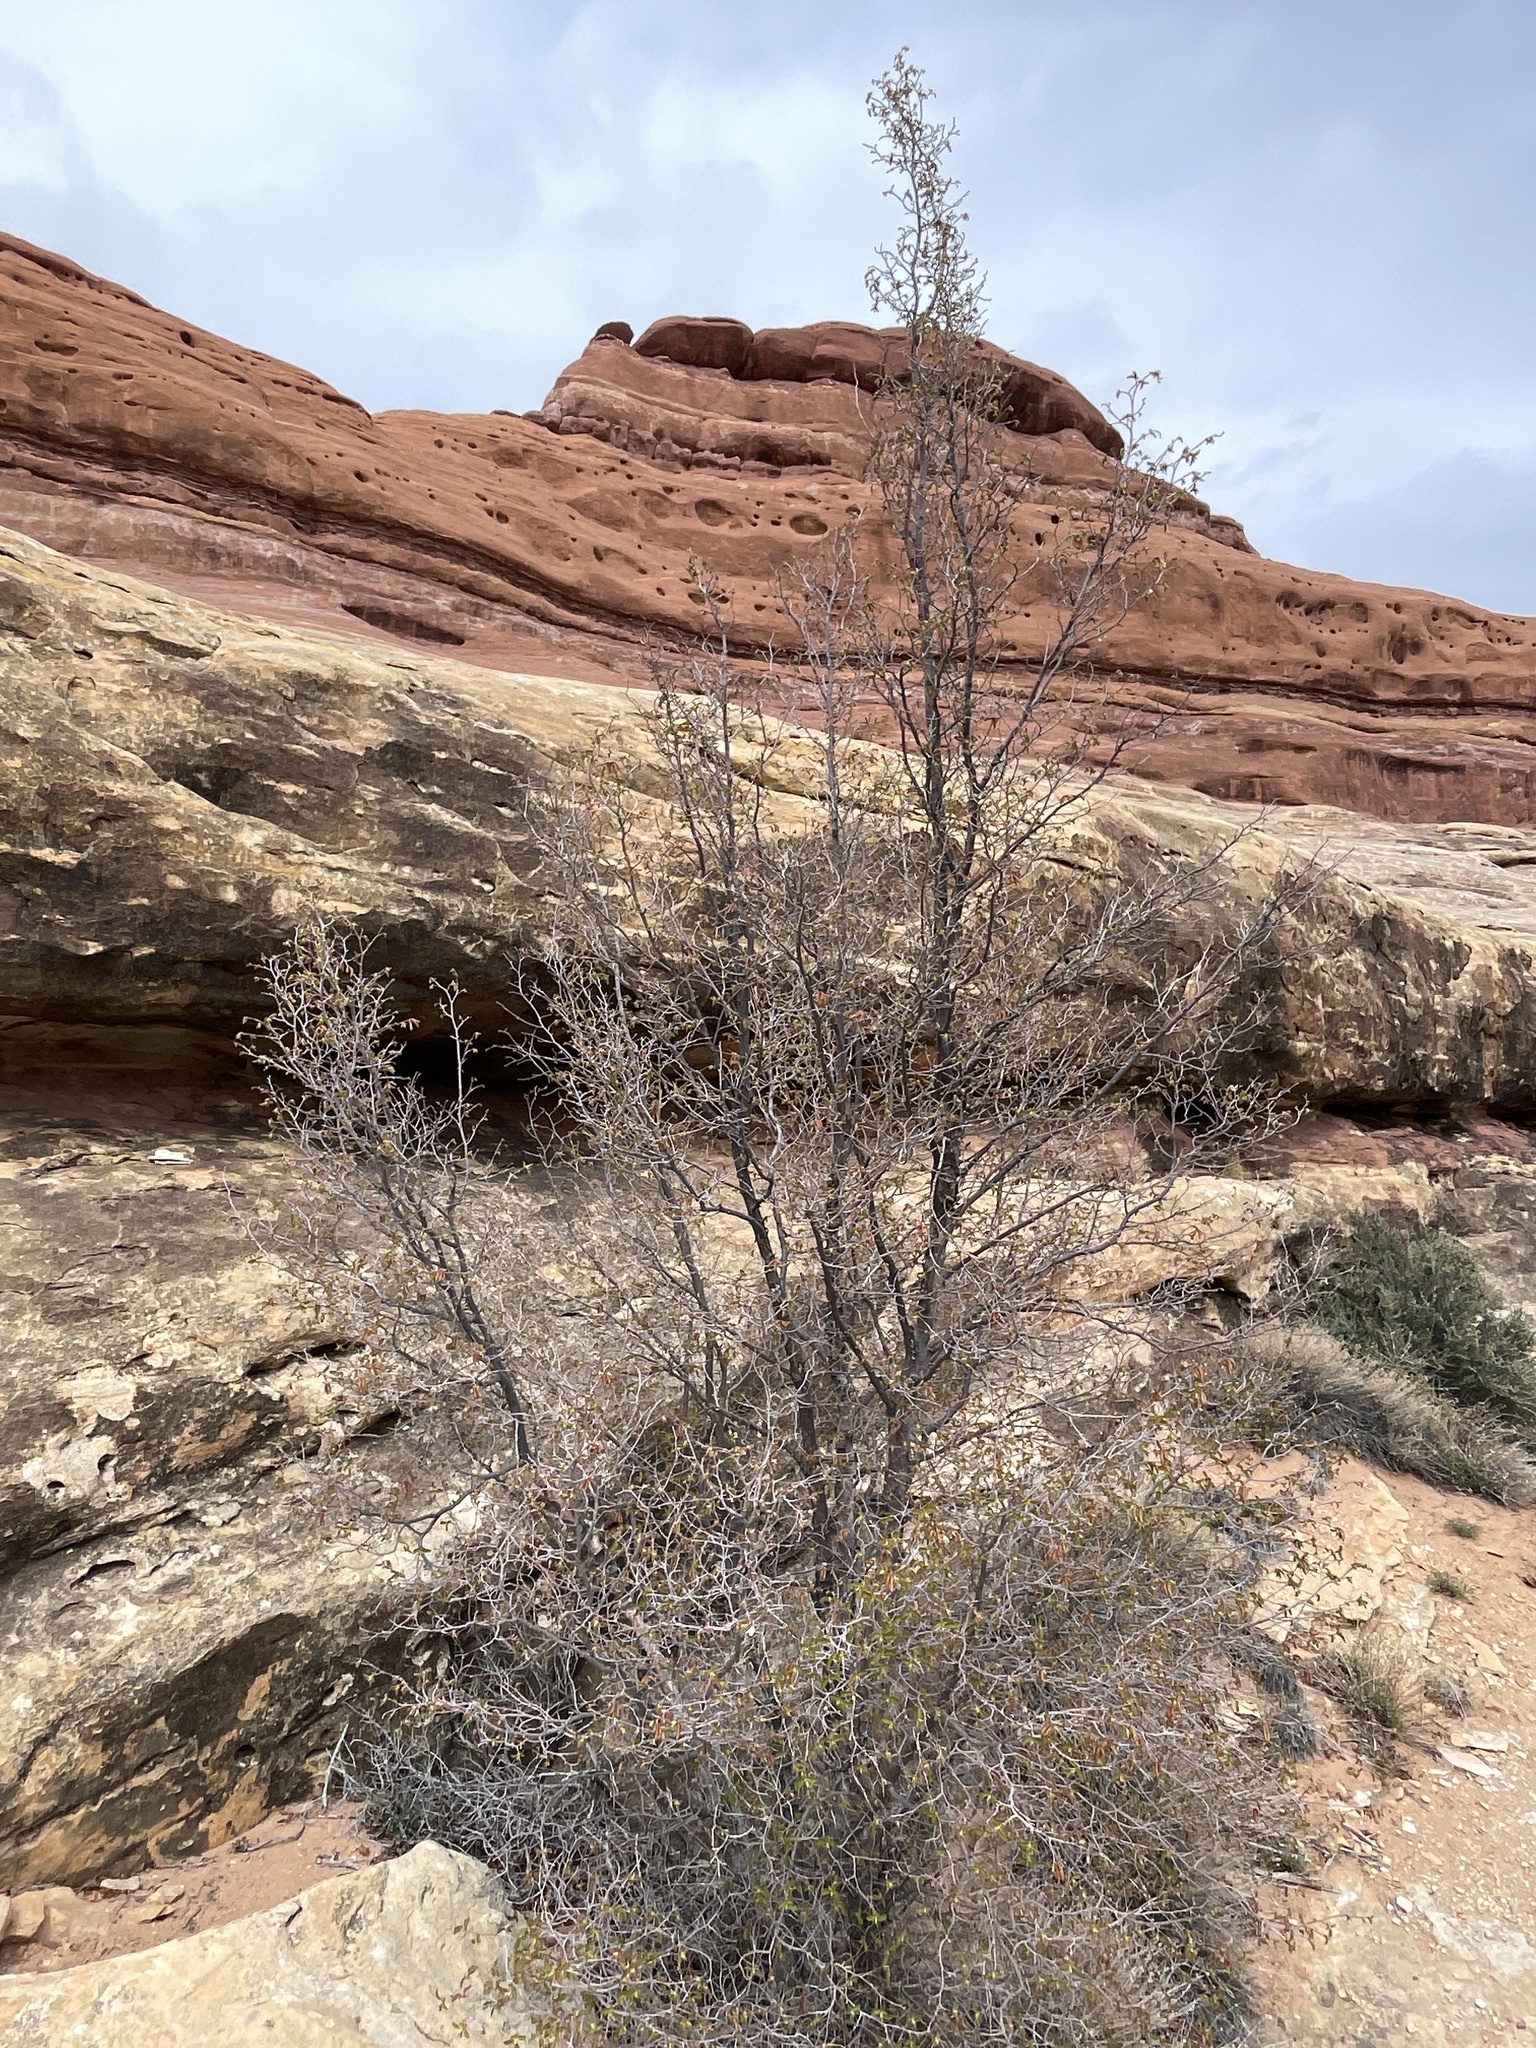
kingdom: Plantae
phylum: Tracheophyta
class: Magnoliopsida
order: Fagales
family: Betulaceae
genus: Ostrya
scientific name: Ostrya knowltonii
